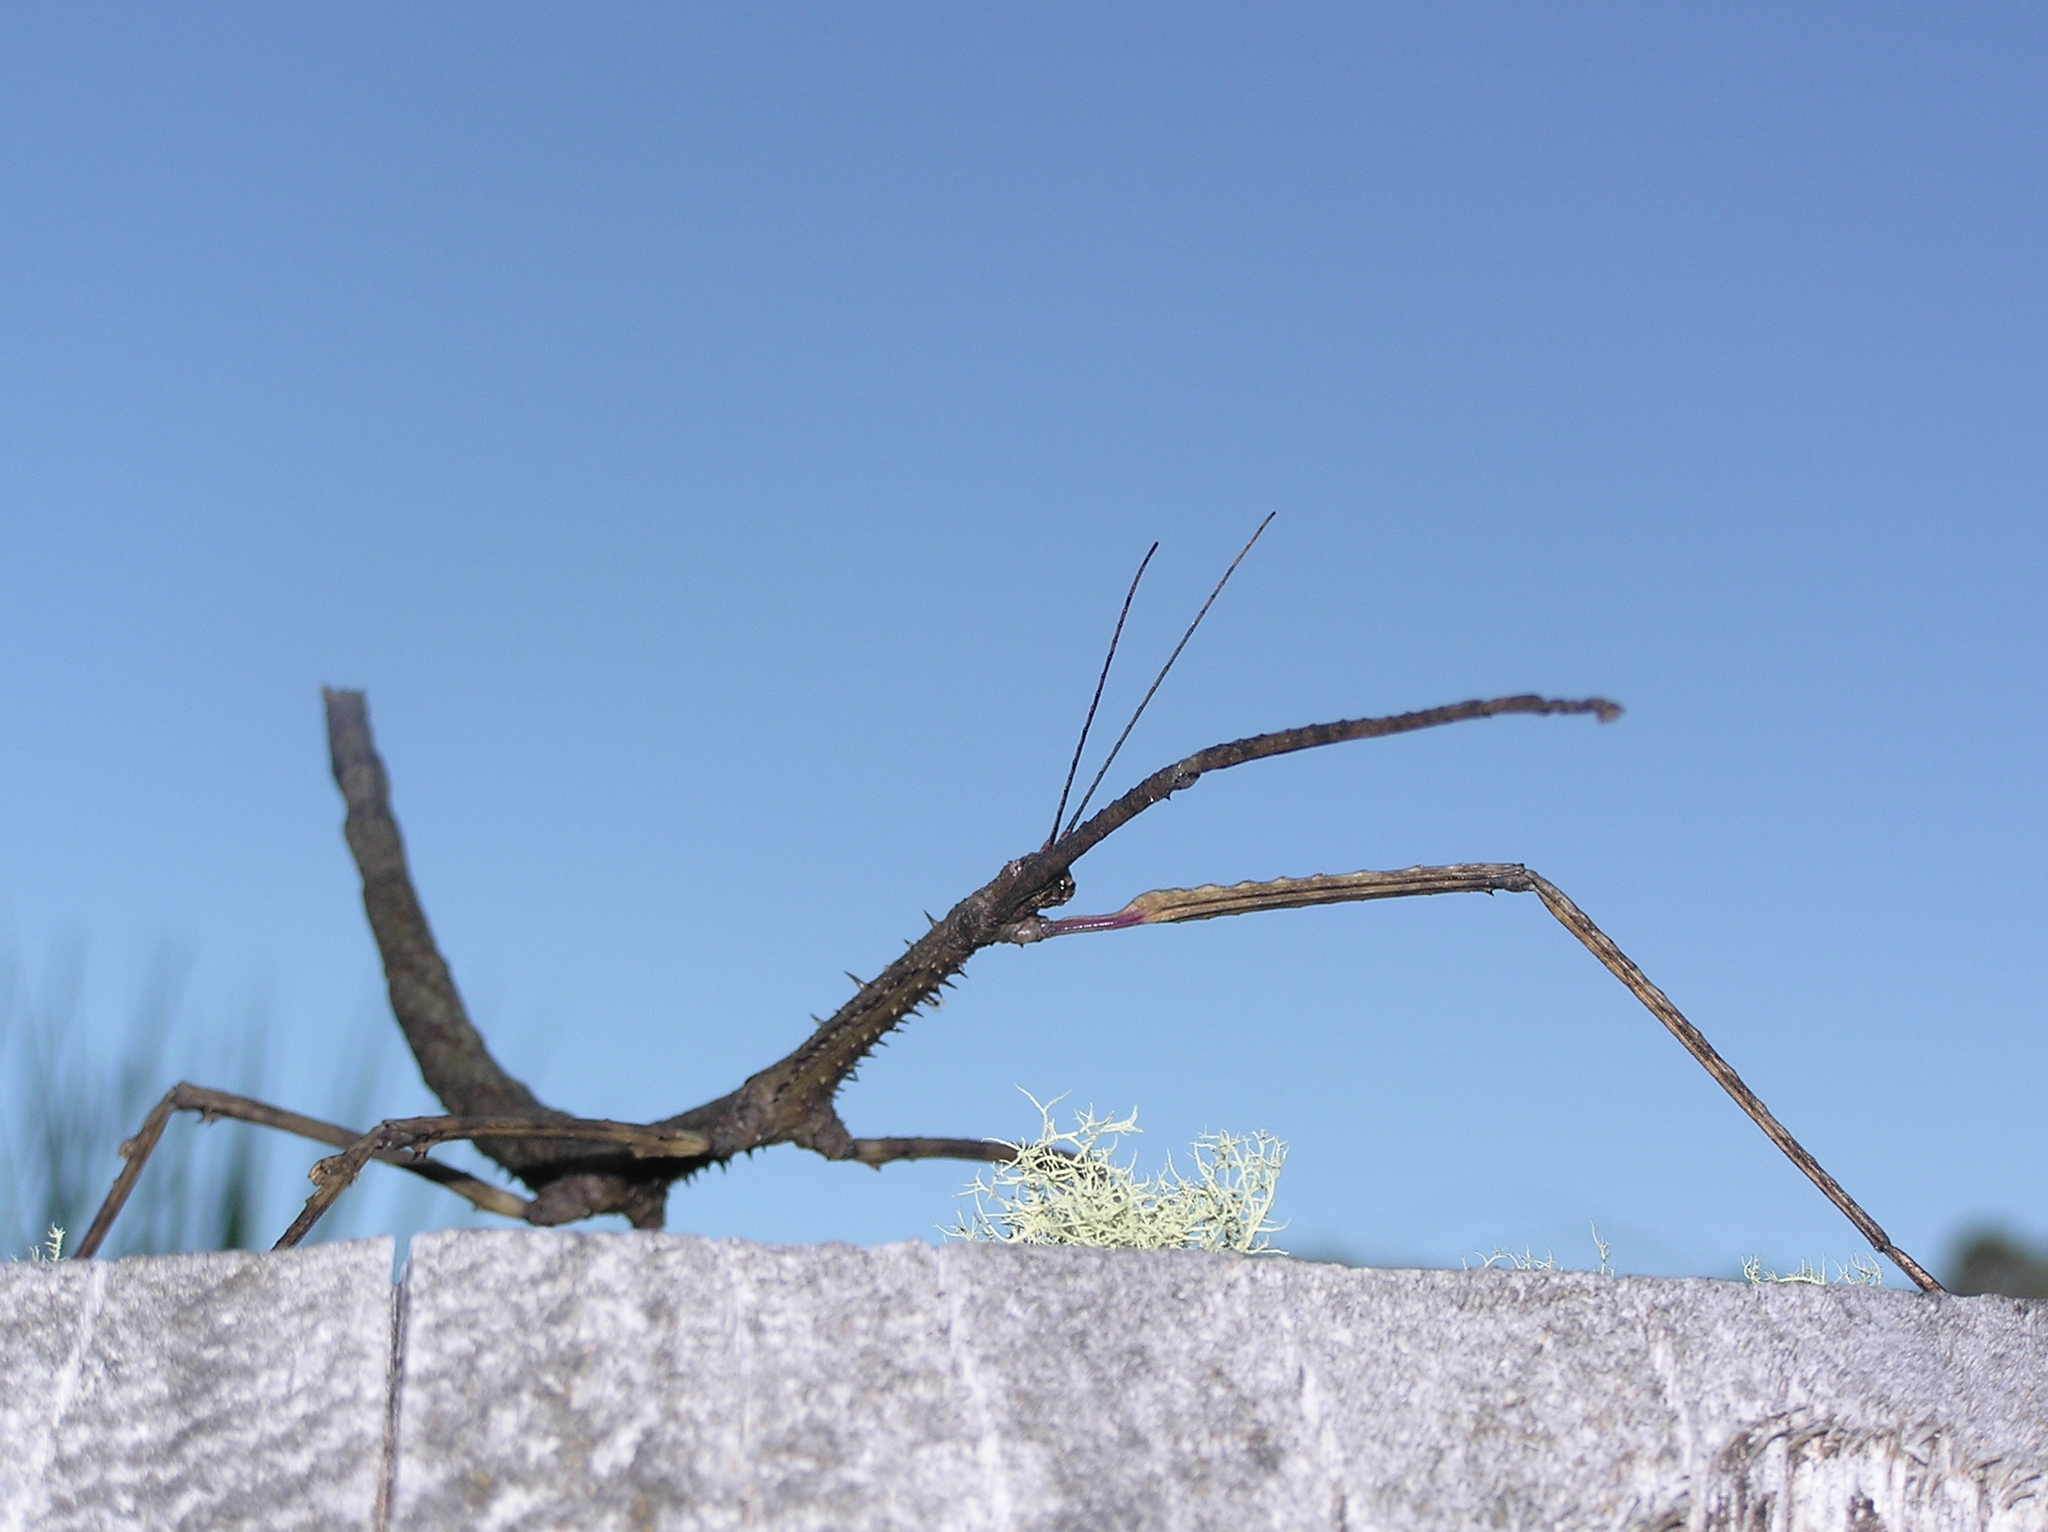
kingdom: Animalia
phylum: Arthropoda
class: Insecta
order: Phasmida
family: Phasmatidae
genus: Argosarchus
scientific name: Argosarchus horridus
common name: Bristly stick insect
